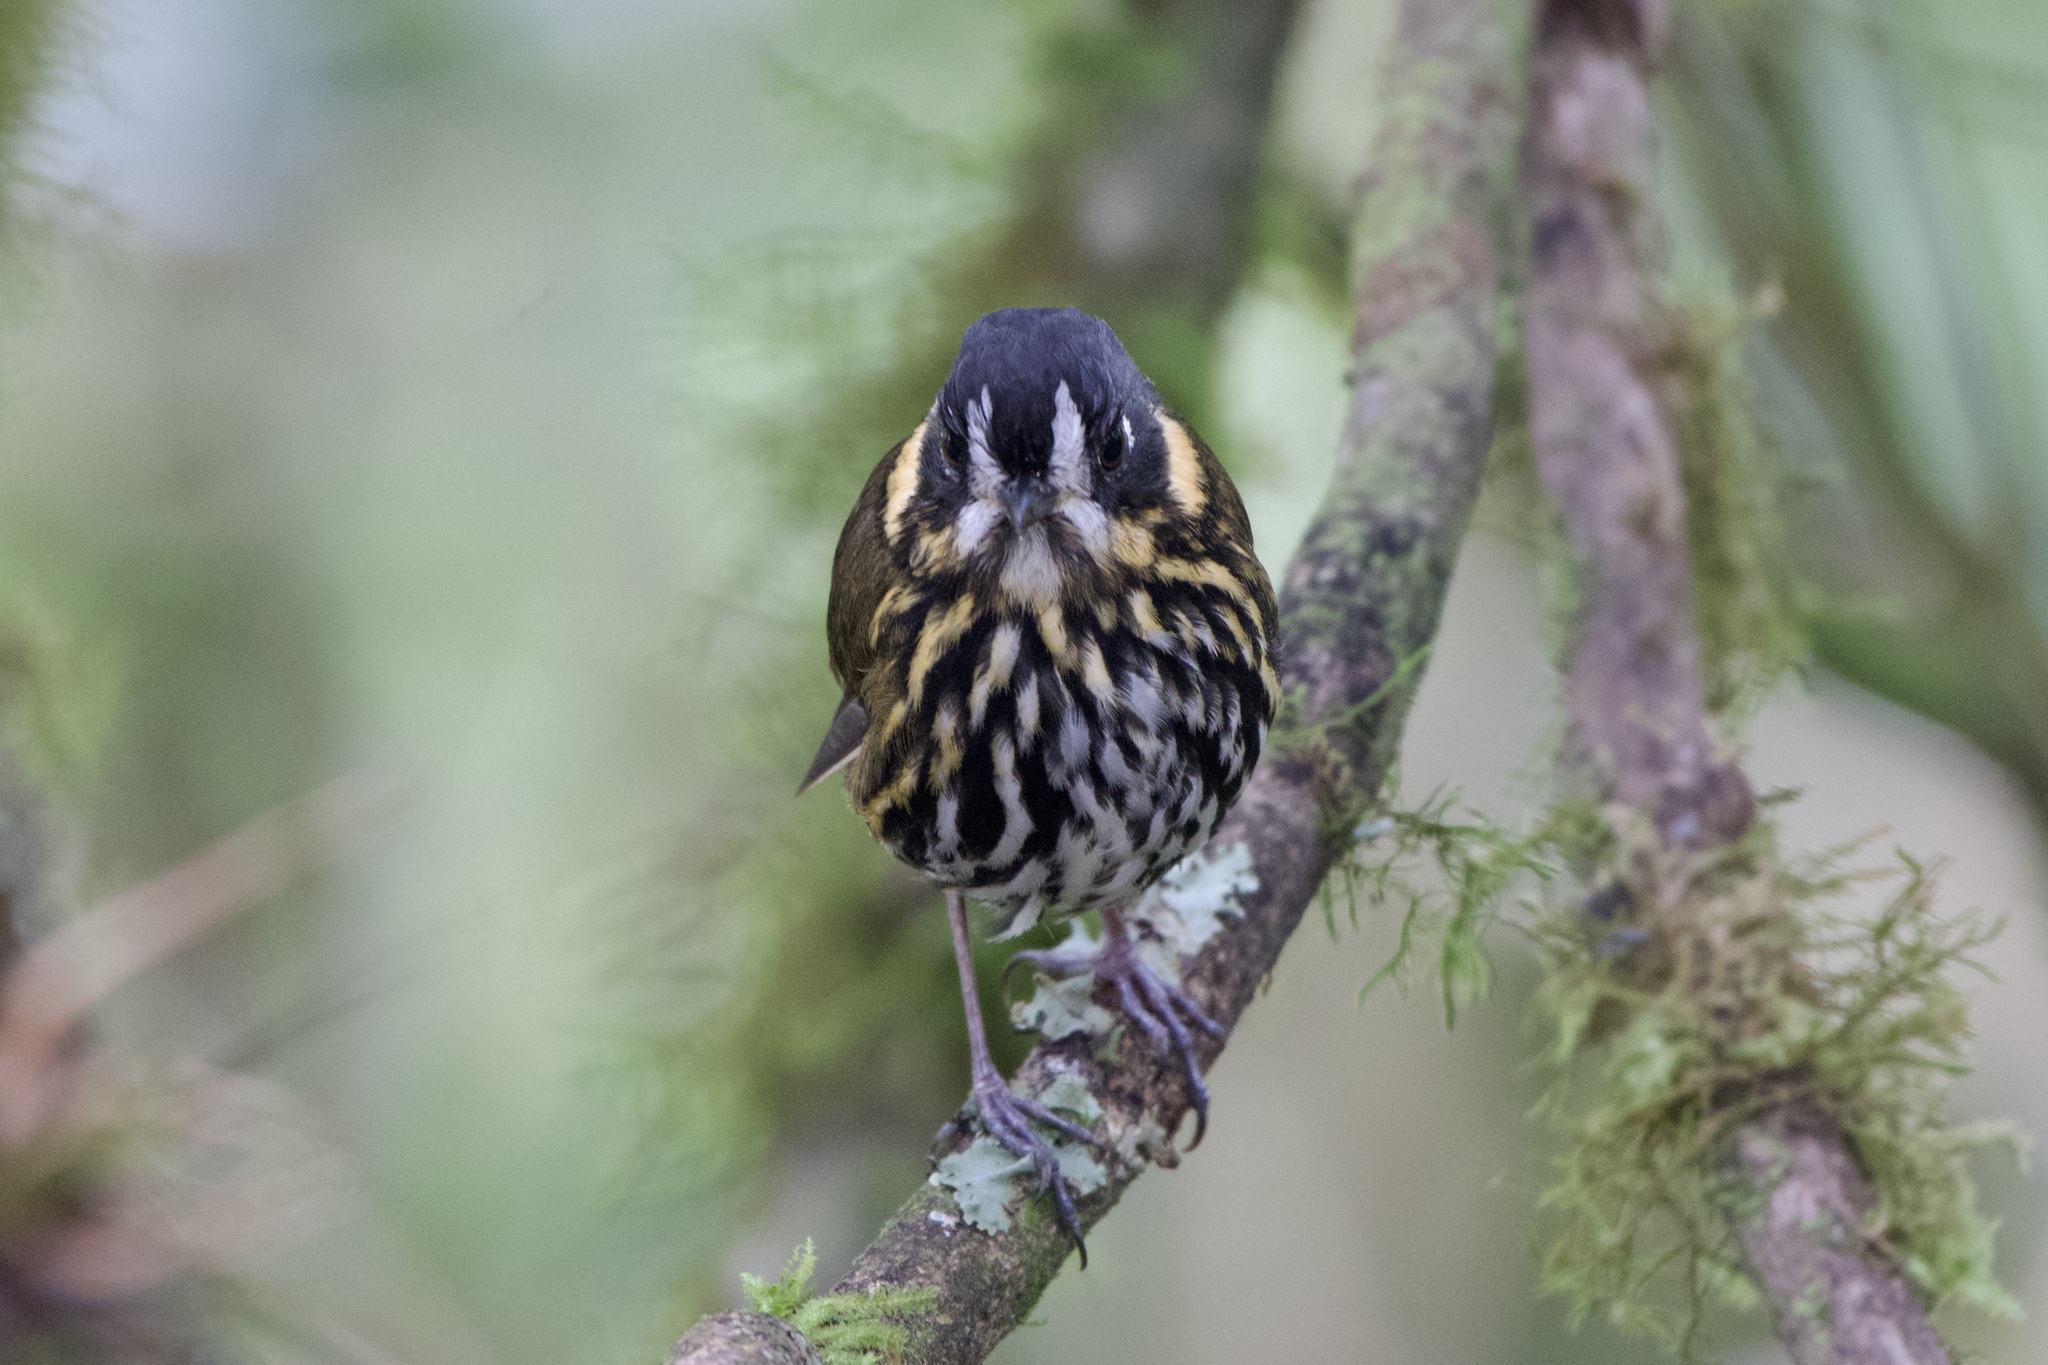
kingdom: Animalia
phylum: Chordata
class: Aves
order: Passeriformes
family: Grallariidae
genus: Grallaricula
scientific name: Grallaricula lineifrons
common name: Crescent-faced antpitta
